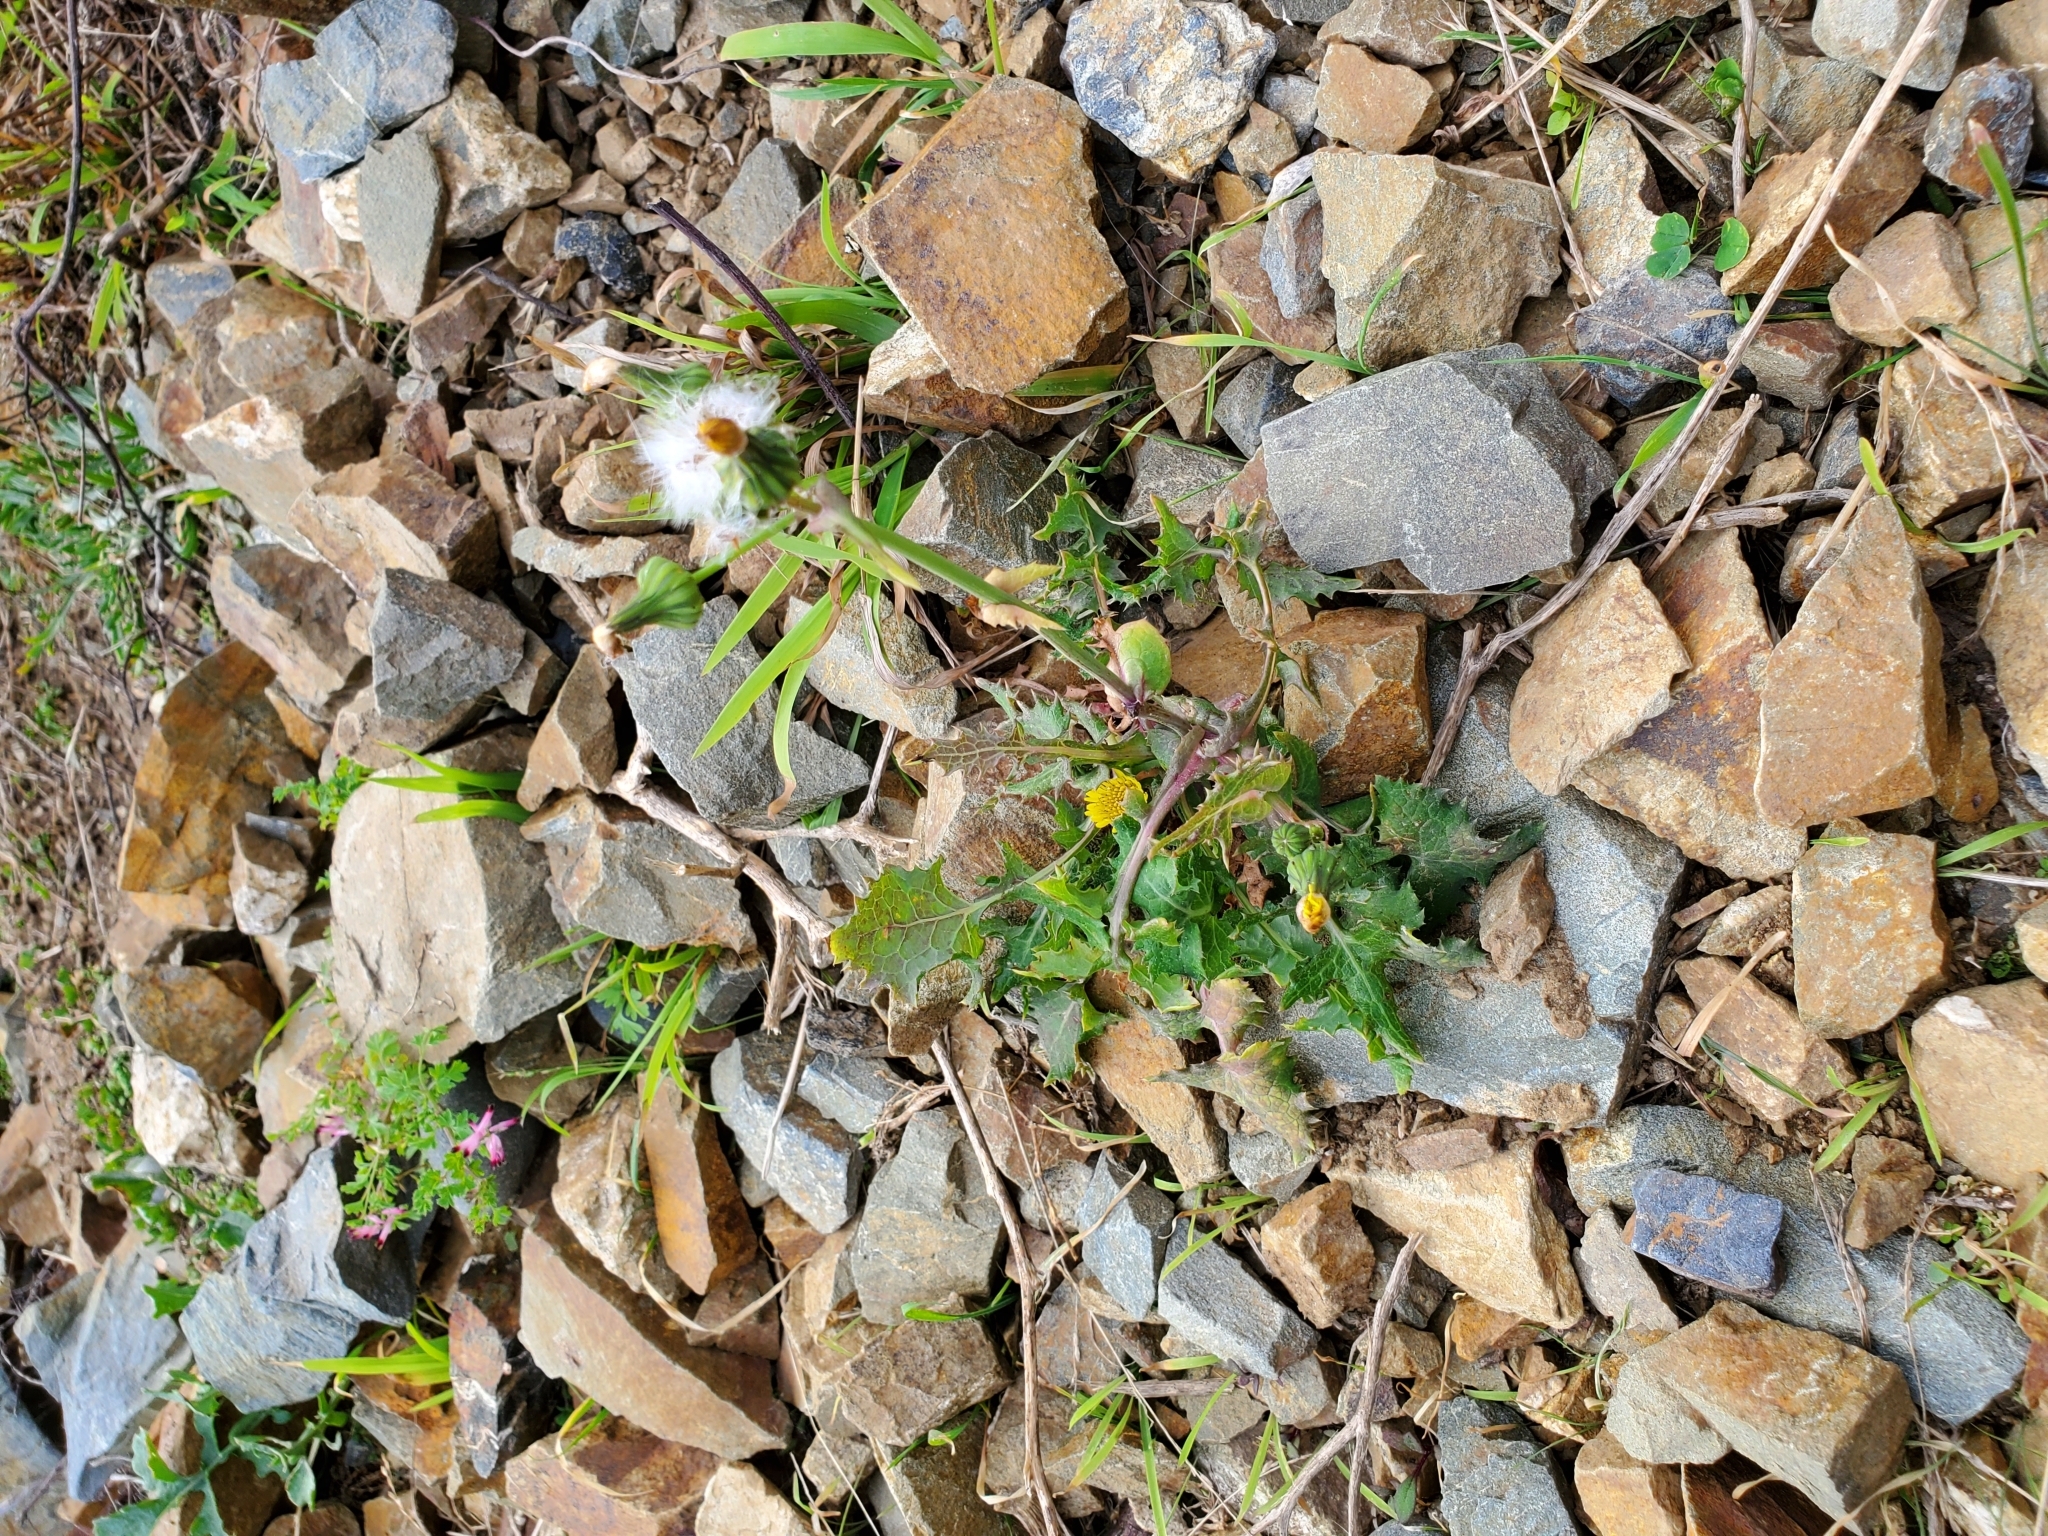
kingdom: Plantae
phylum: Tracheophyta
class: Magnoliopsida
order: Asterales
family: Asteraceae
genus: Sonchus
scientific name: Sonchus oleraceus
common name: Common sowthistle
